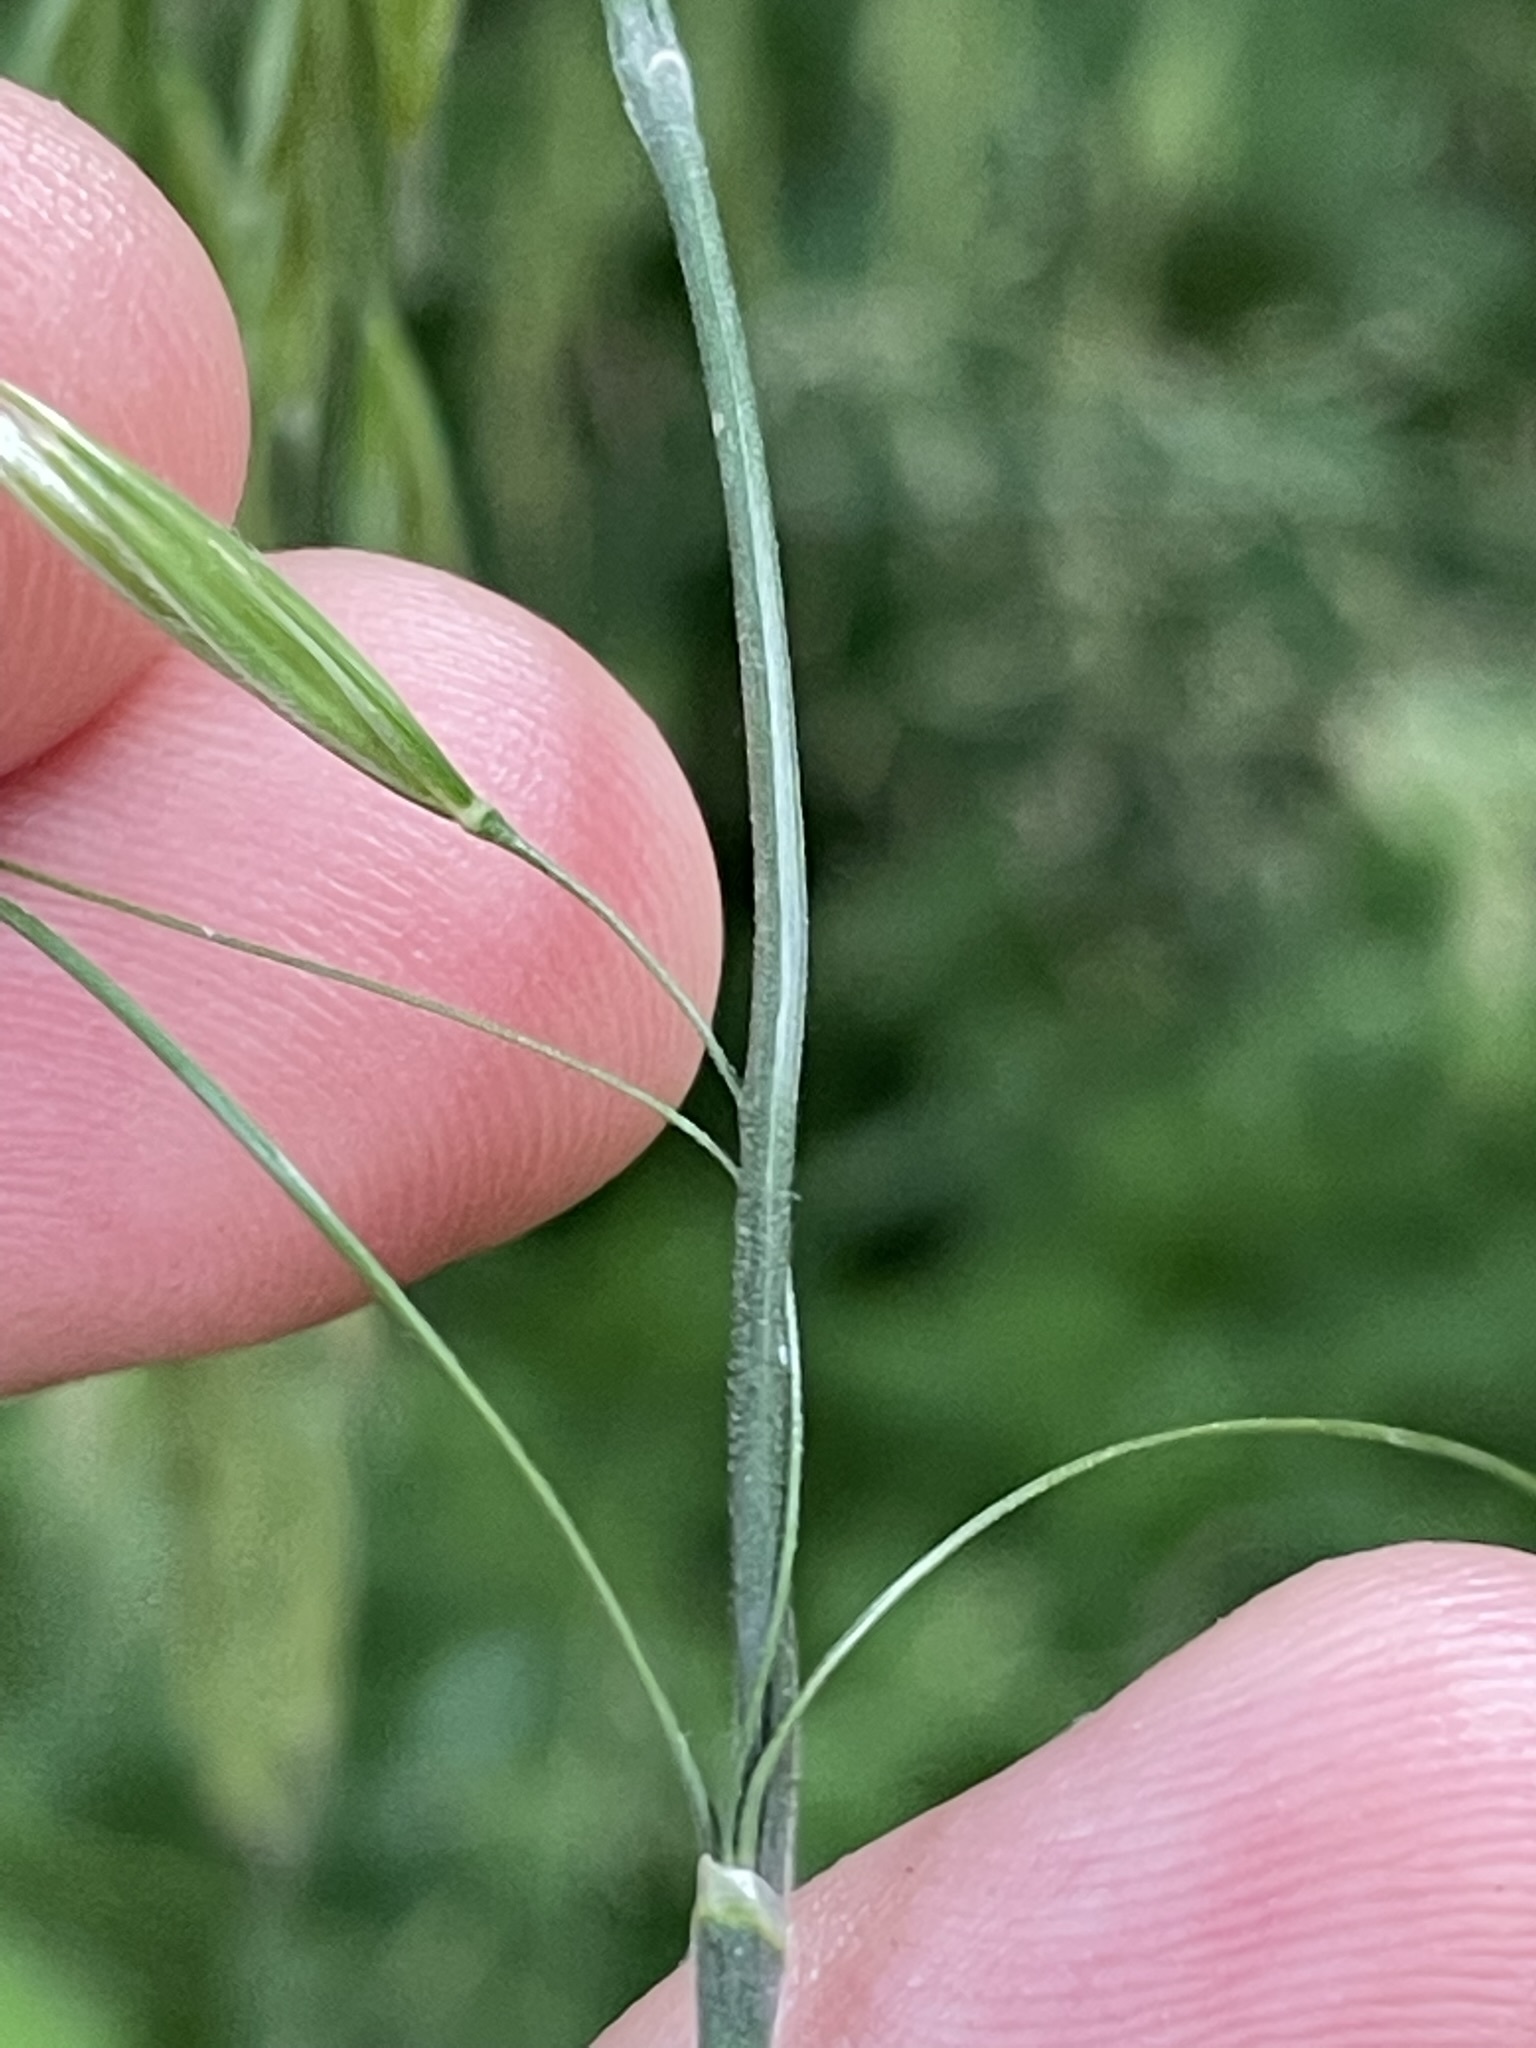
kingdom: Plantae
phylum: Tracheophyta
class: Liliopsida
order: Poales
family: Poaceae
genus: Bromus
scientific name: Bromus benekenii
